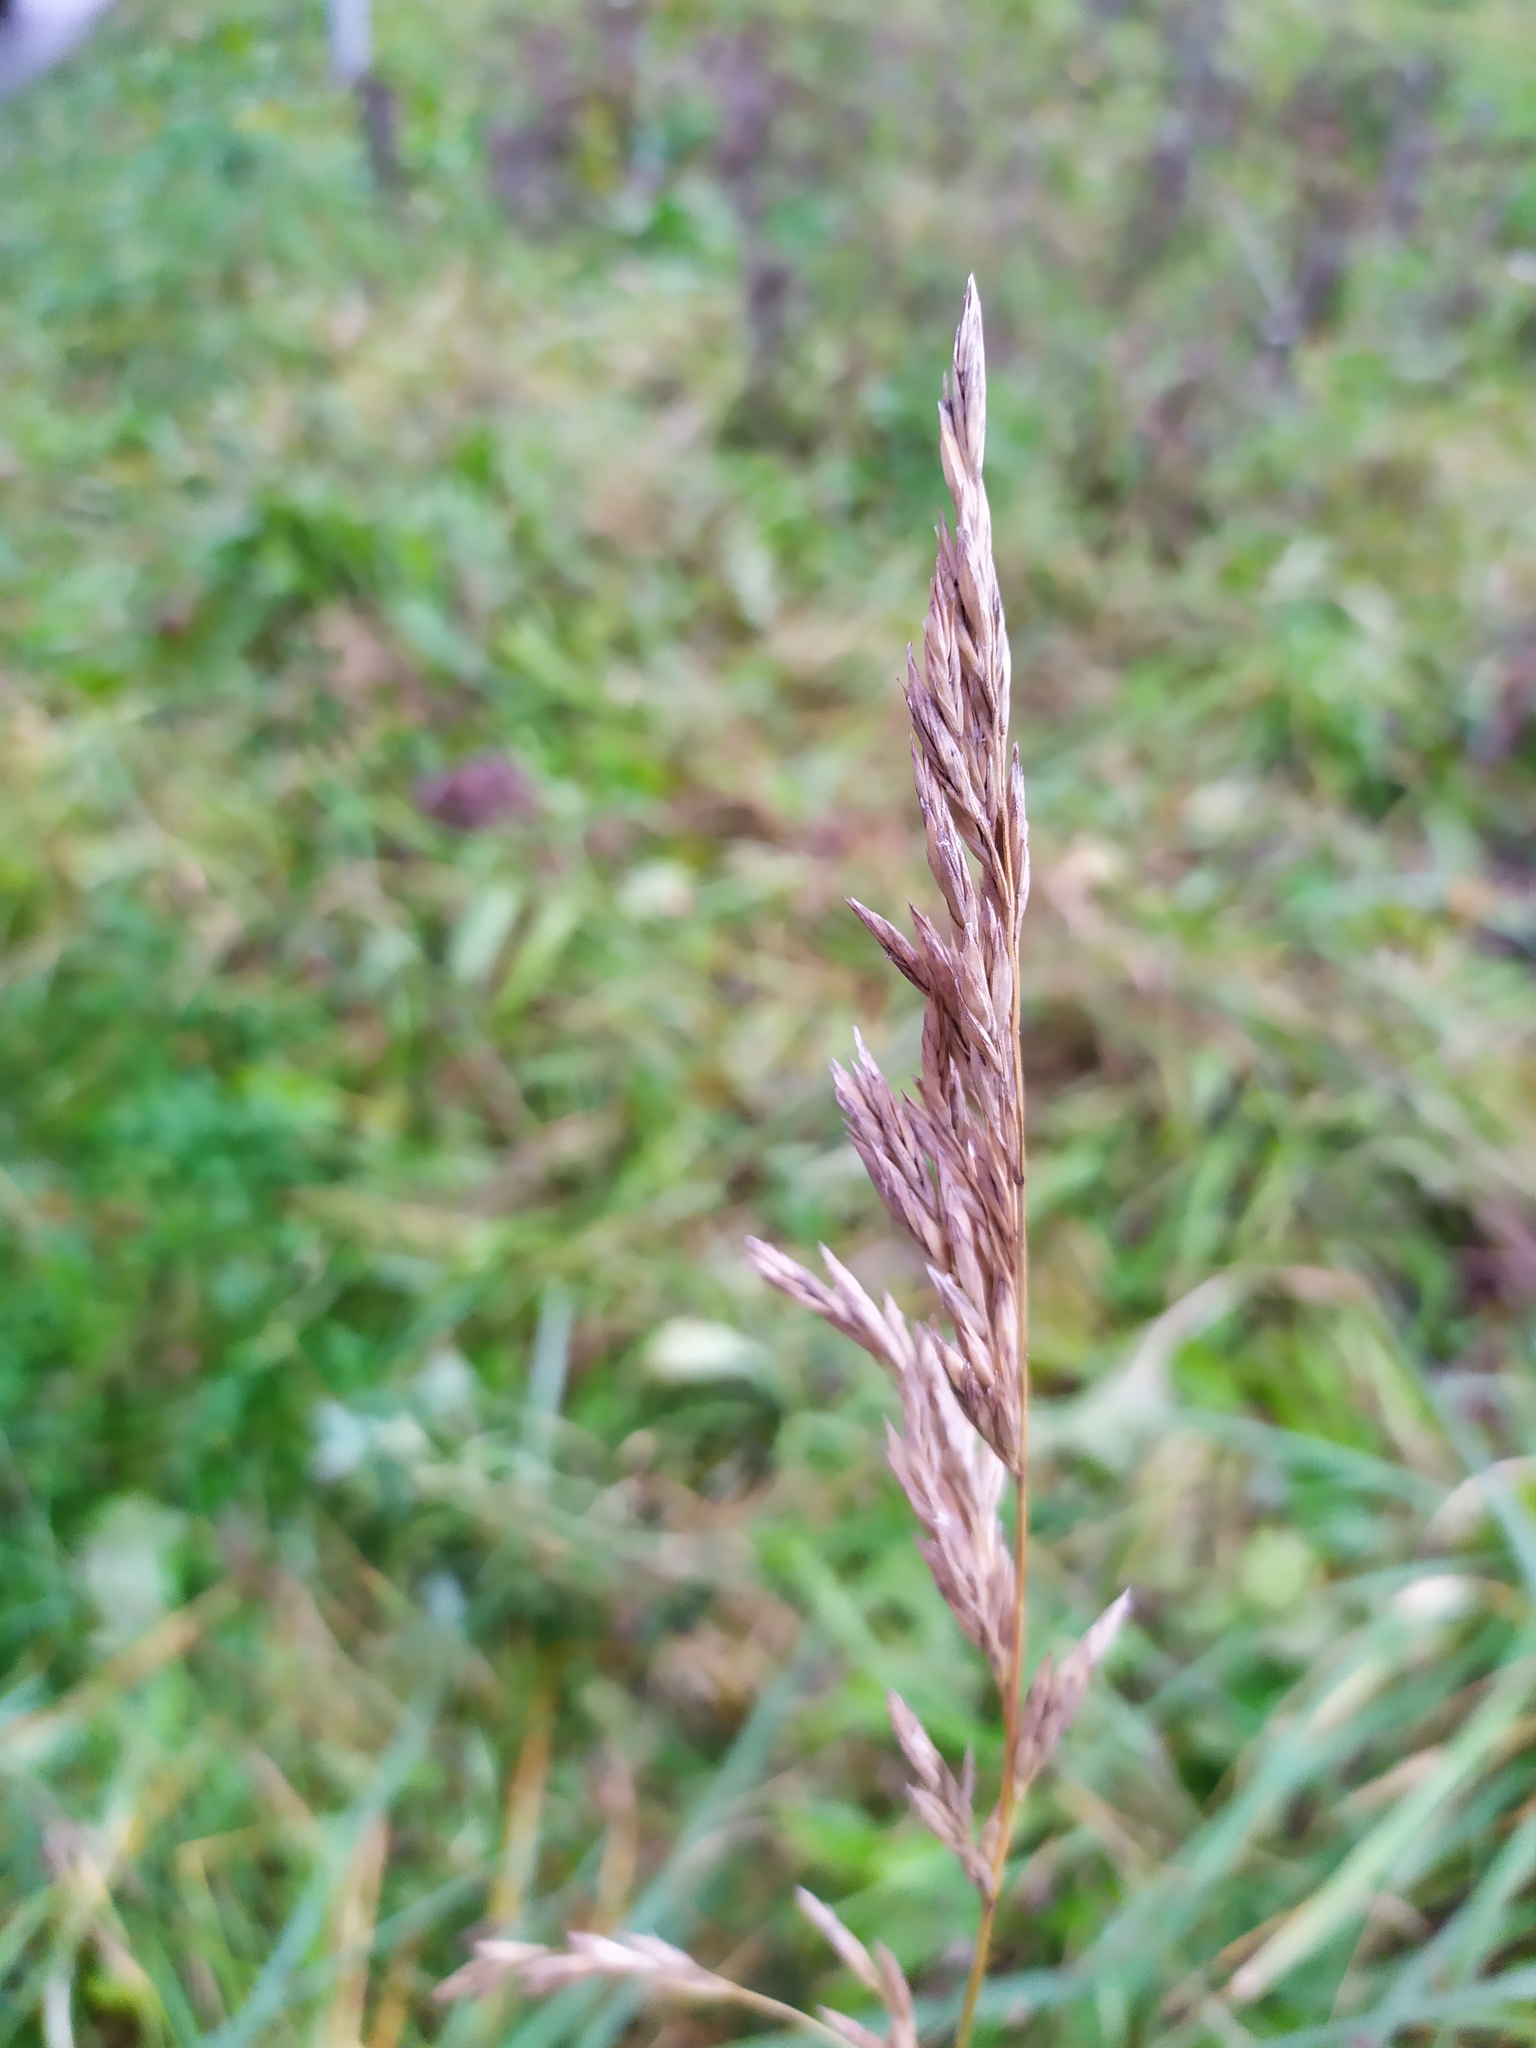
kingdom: Plantae
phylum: Tracheophyta
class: Liliopsida
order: Poales
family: Poaceae
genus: Bromus
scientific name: Bromus inermis
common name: Smooth brome
